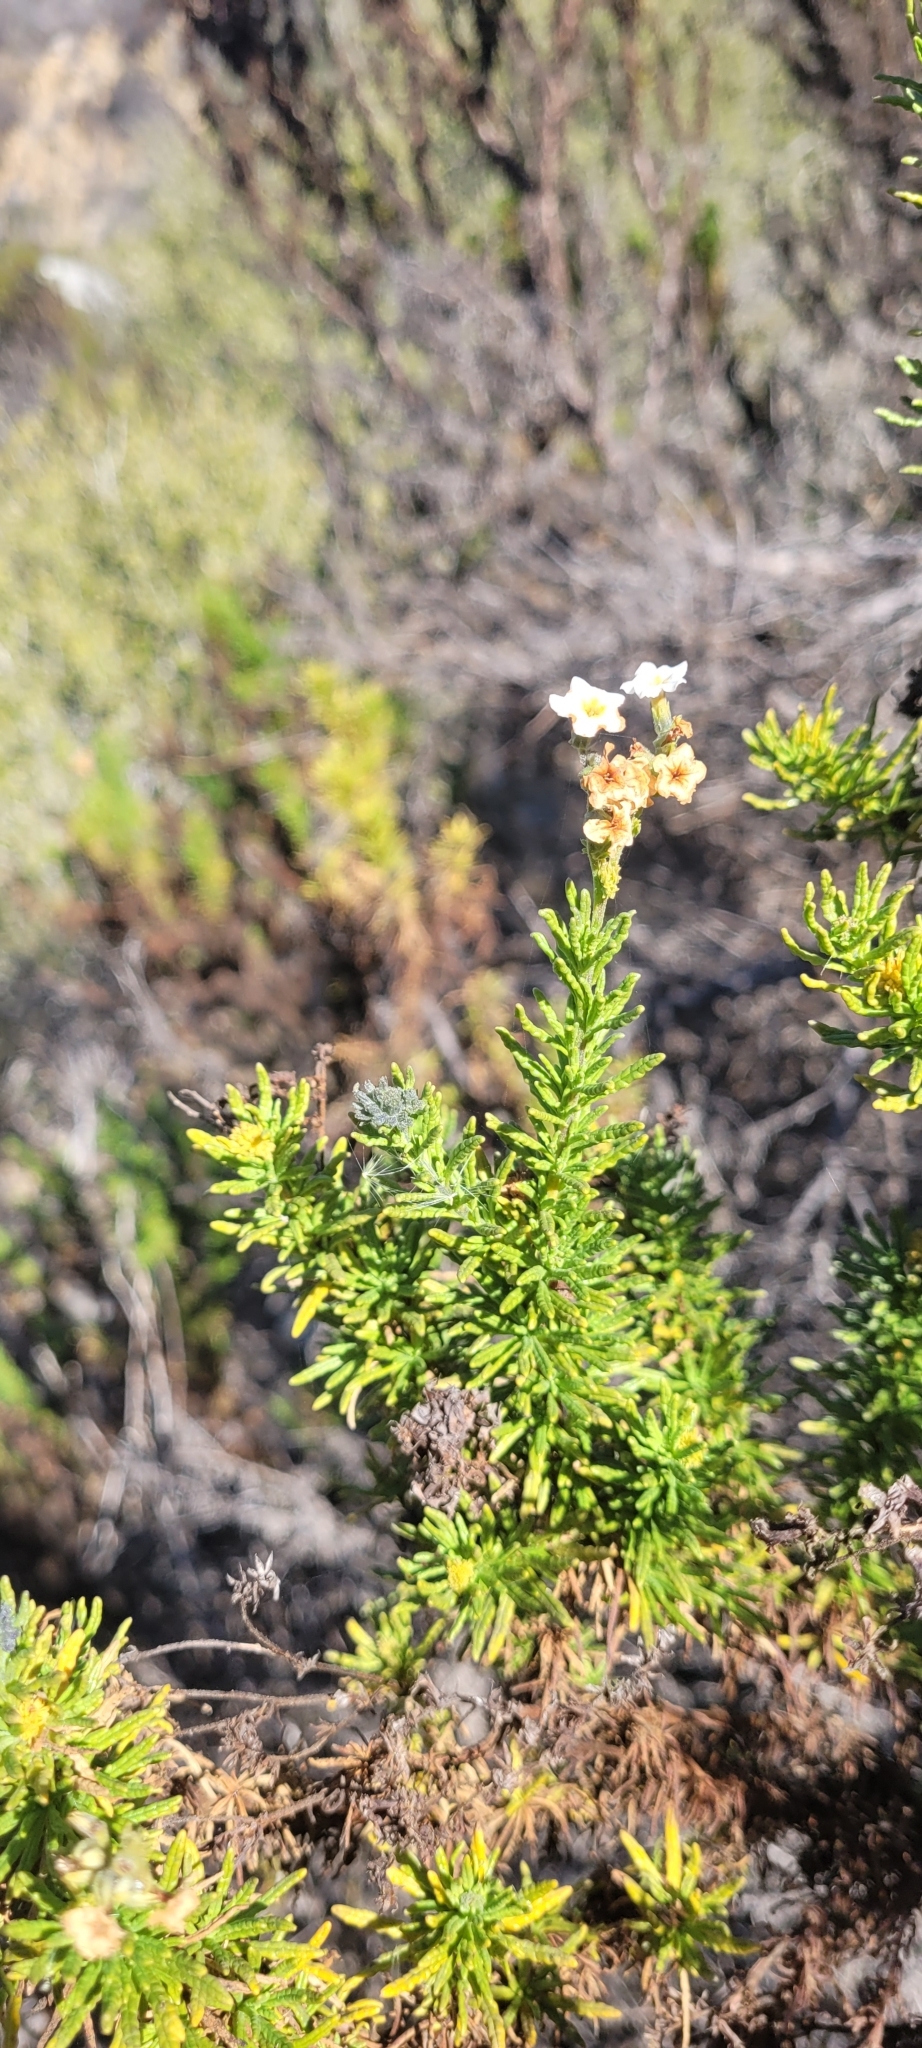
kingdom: Plantae
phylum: Tracheophyta
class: Magnoliopsida
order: Boraginales
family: Heliotropiaceae
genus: Heliotropium
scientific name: Heliotropium sinuatum
